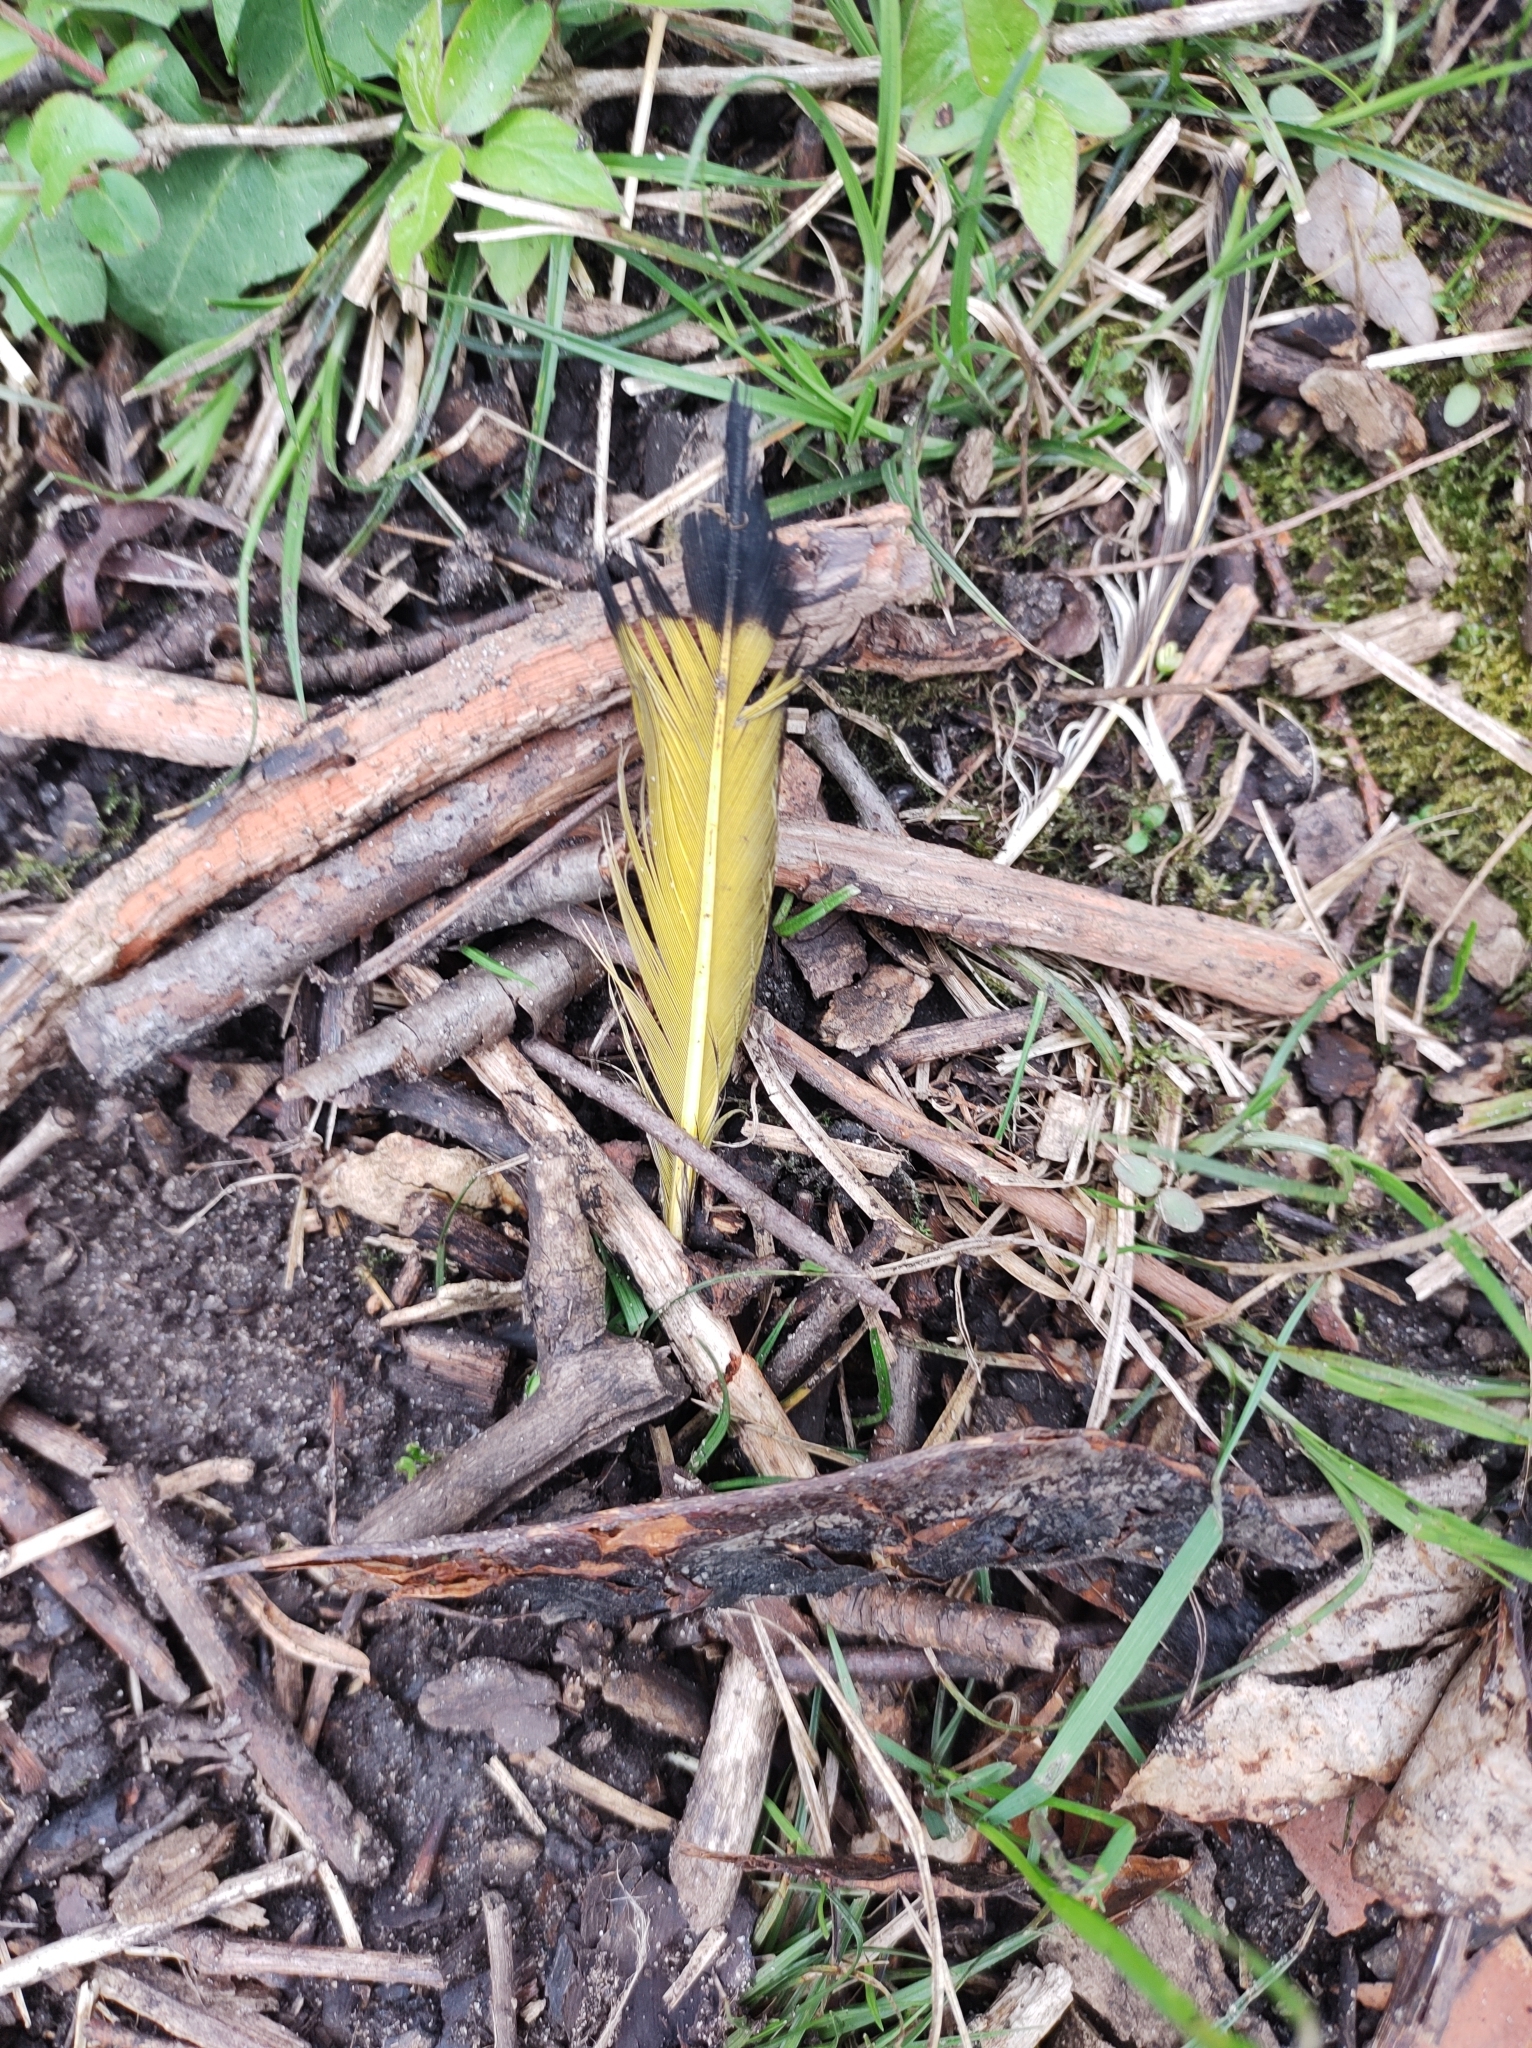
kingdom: Animalia
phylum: Chordata
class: Aves
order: Piciformes
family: Picidae
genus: Colaptes
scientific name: Colaptes auratus
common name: Northern flicker
